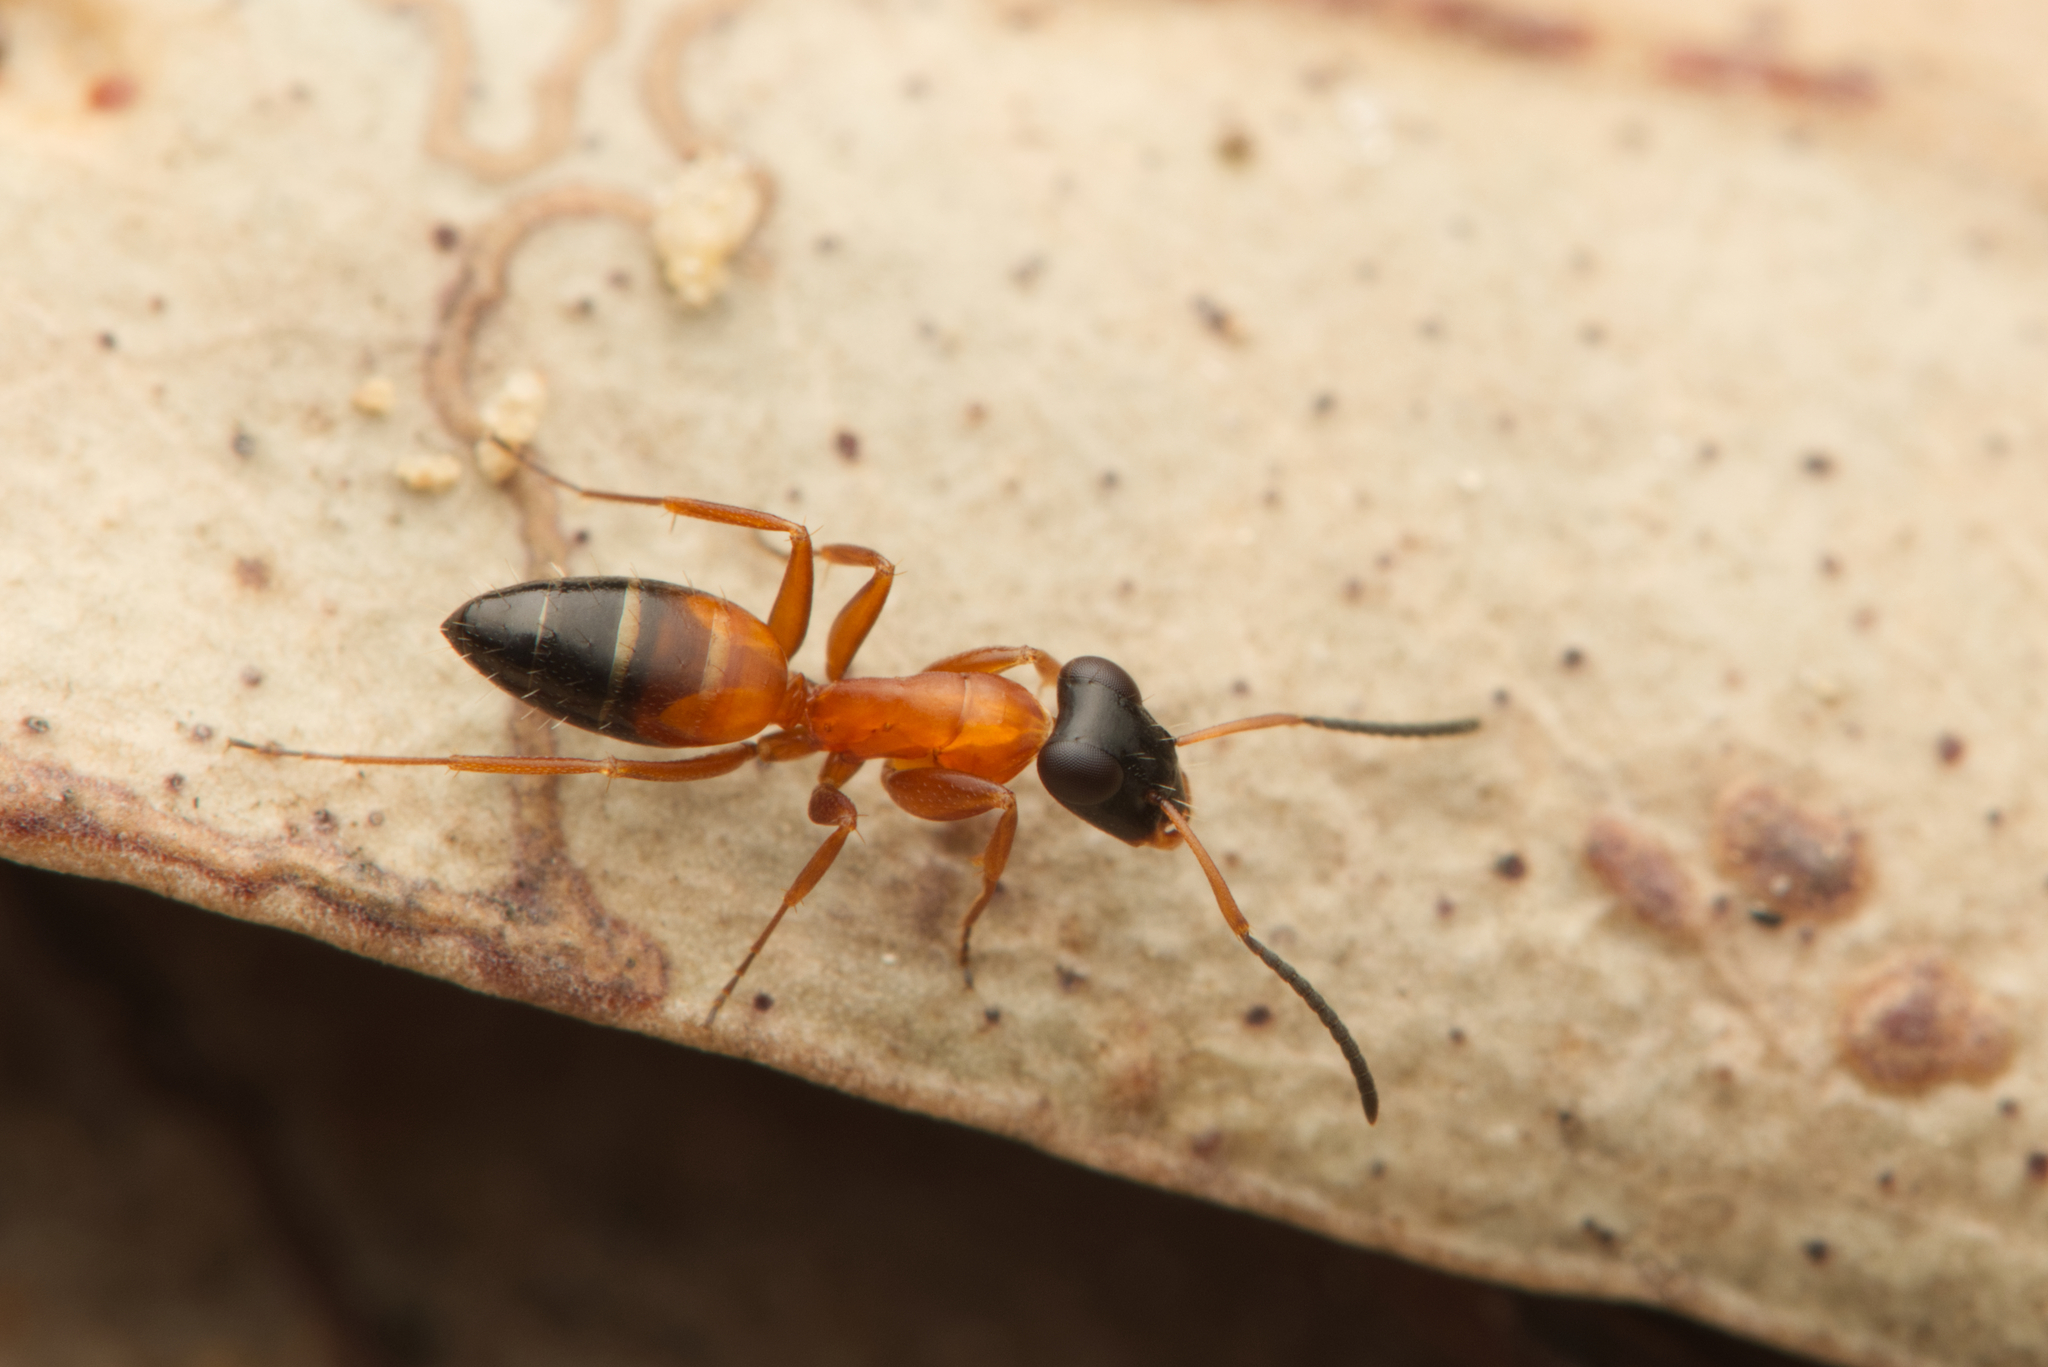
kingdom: Animalia
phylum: Arthropoda
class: Insecta
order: Hymenoptera
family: Formicidae
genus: Opisthopsis
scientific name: Opisthopsis rufithorax
